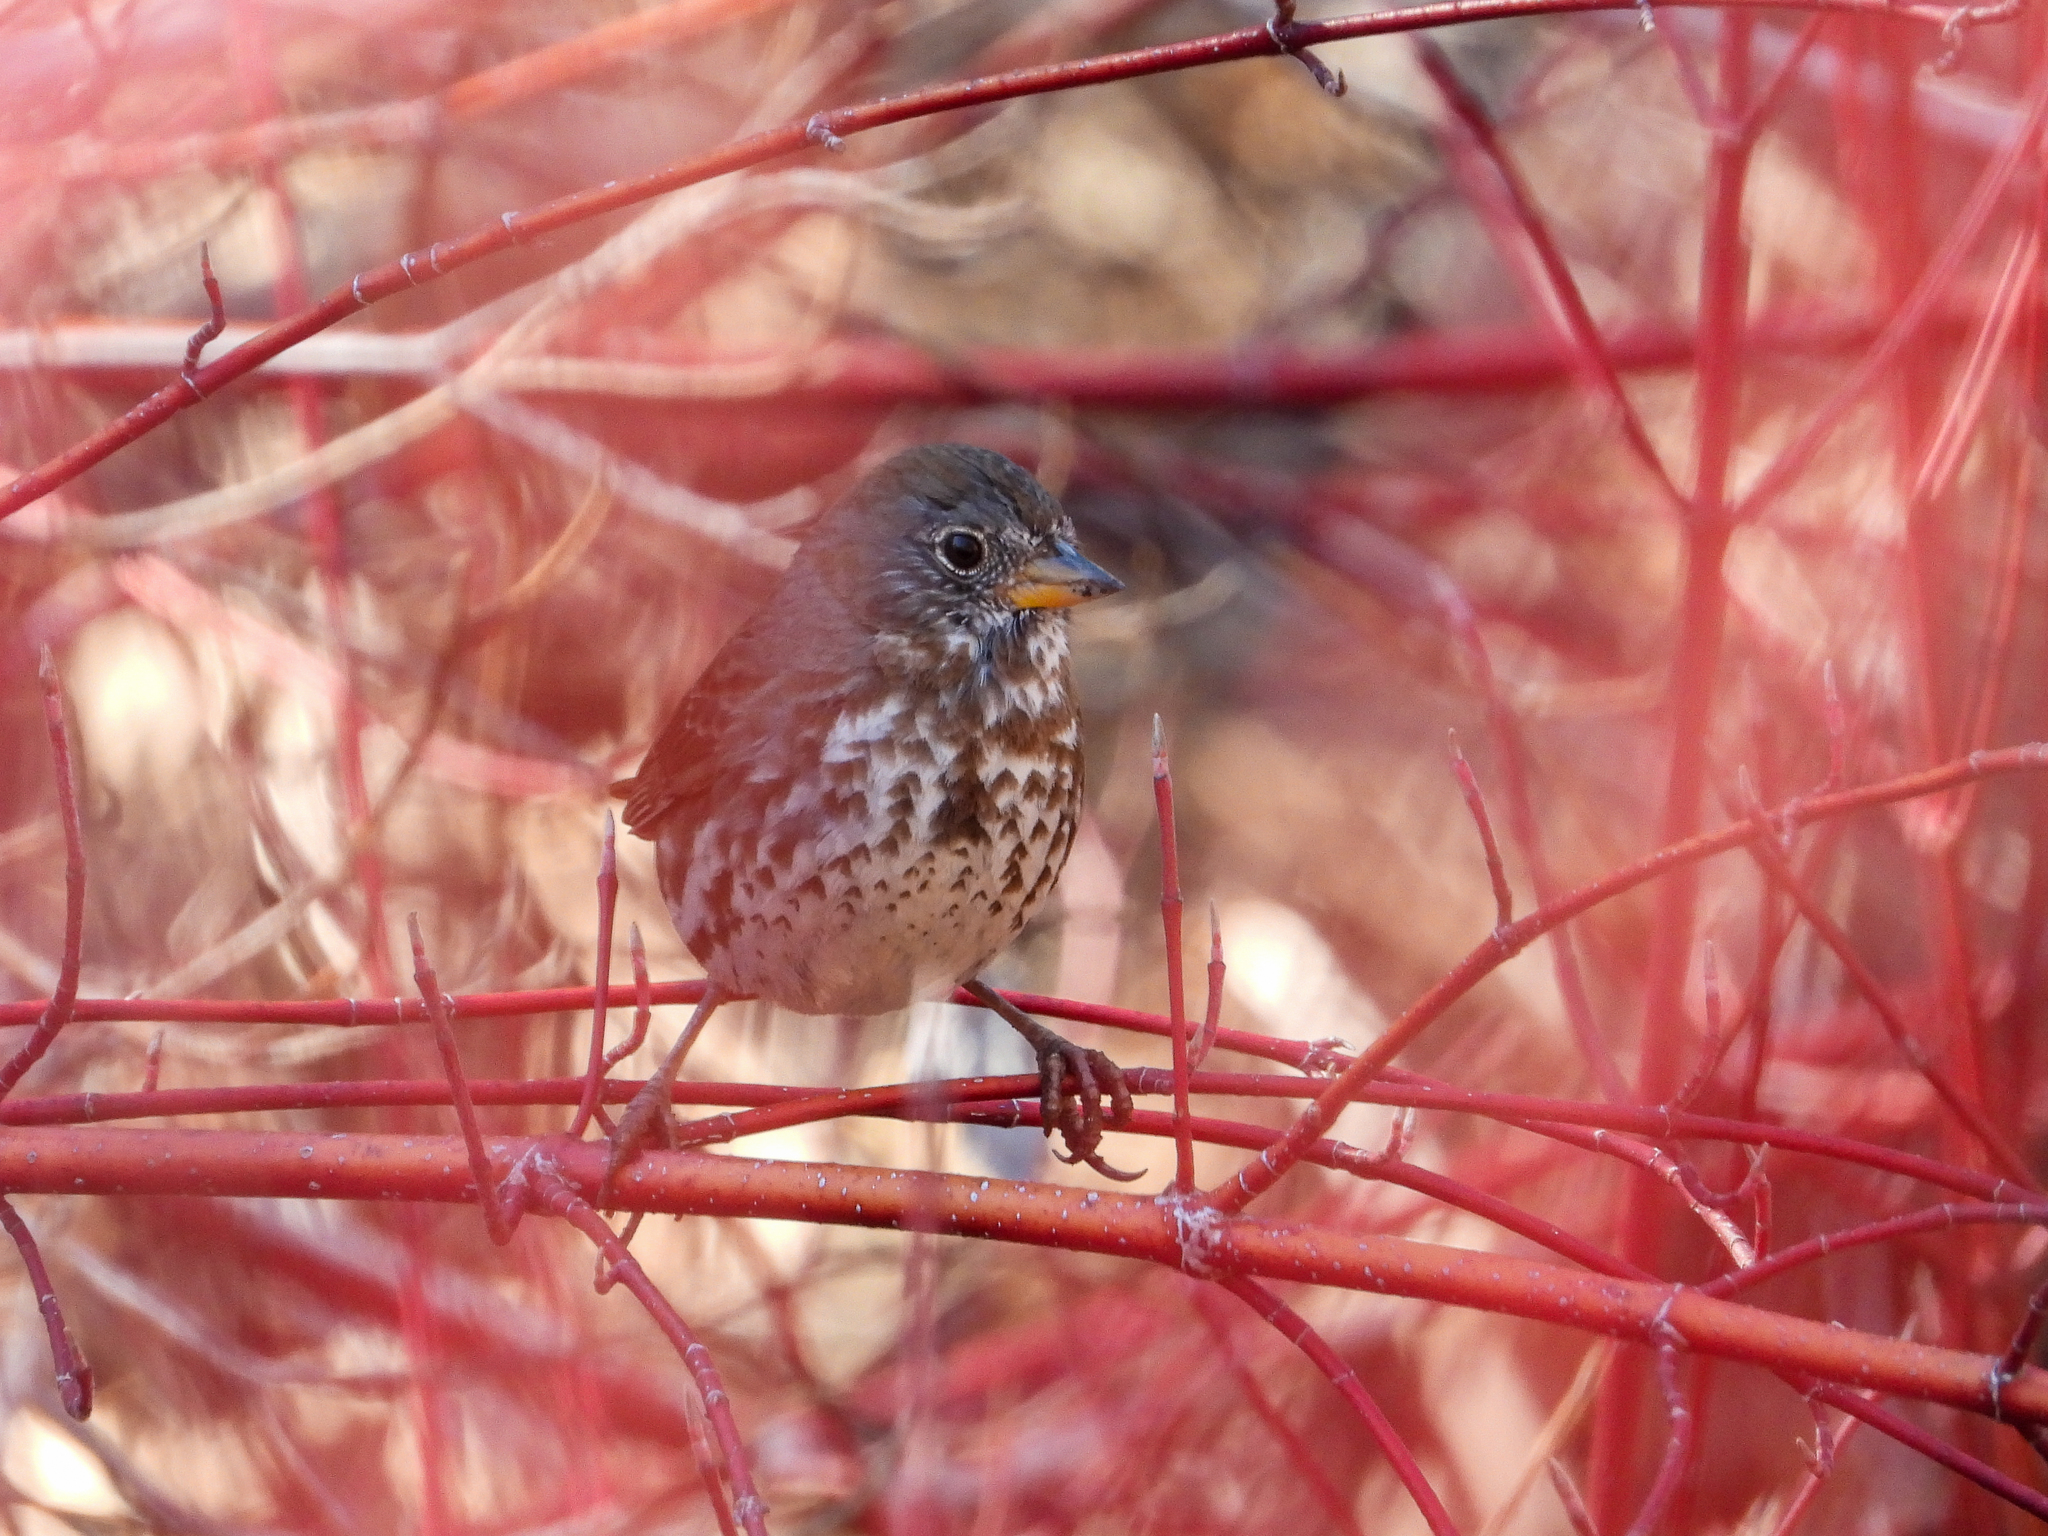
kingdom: Animalia
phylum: Chordata
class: Aves
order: Passeriformes
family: Passerellidae
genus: Passerella
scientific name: Passerella iliaca
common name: Fox sparrow
